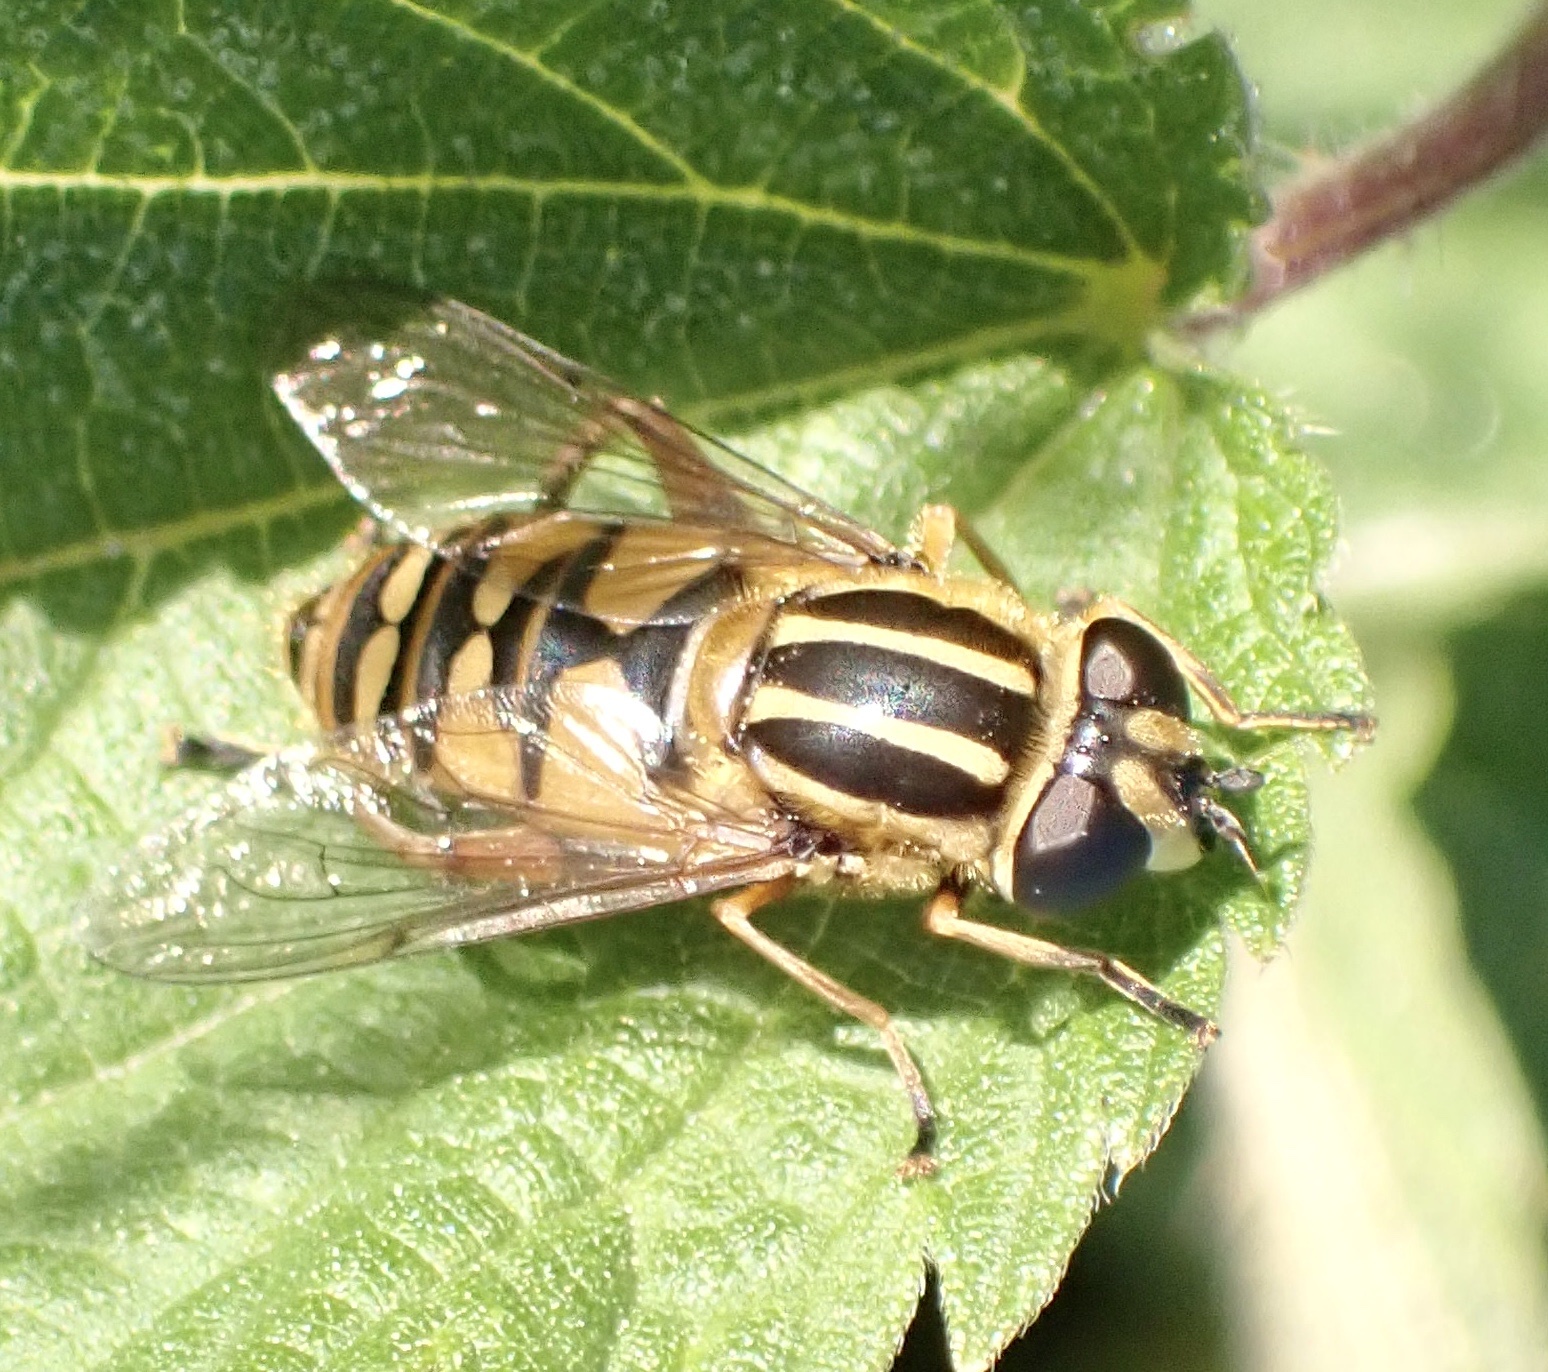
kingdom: Animalia
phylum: Arthropoda
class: Insecta
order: Diptera
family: Syrphidae
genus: Helophilus
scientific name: Helophilus pendulus
